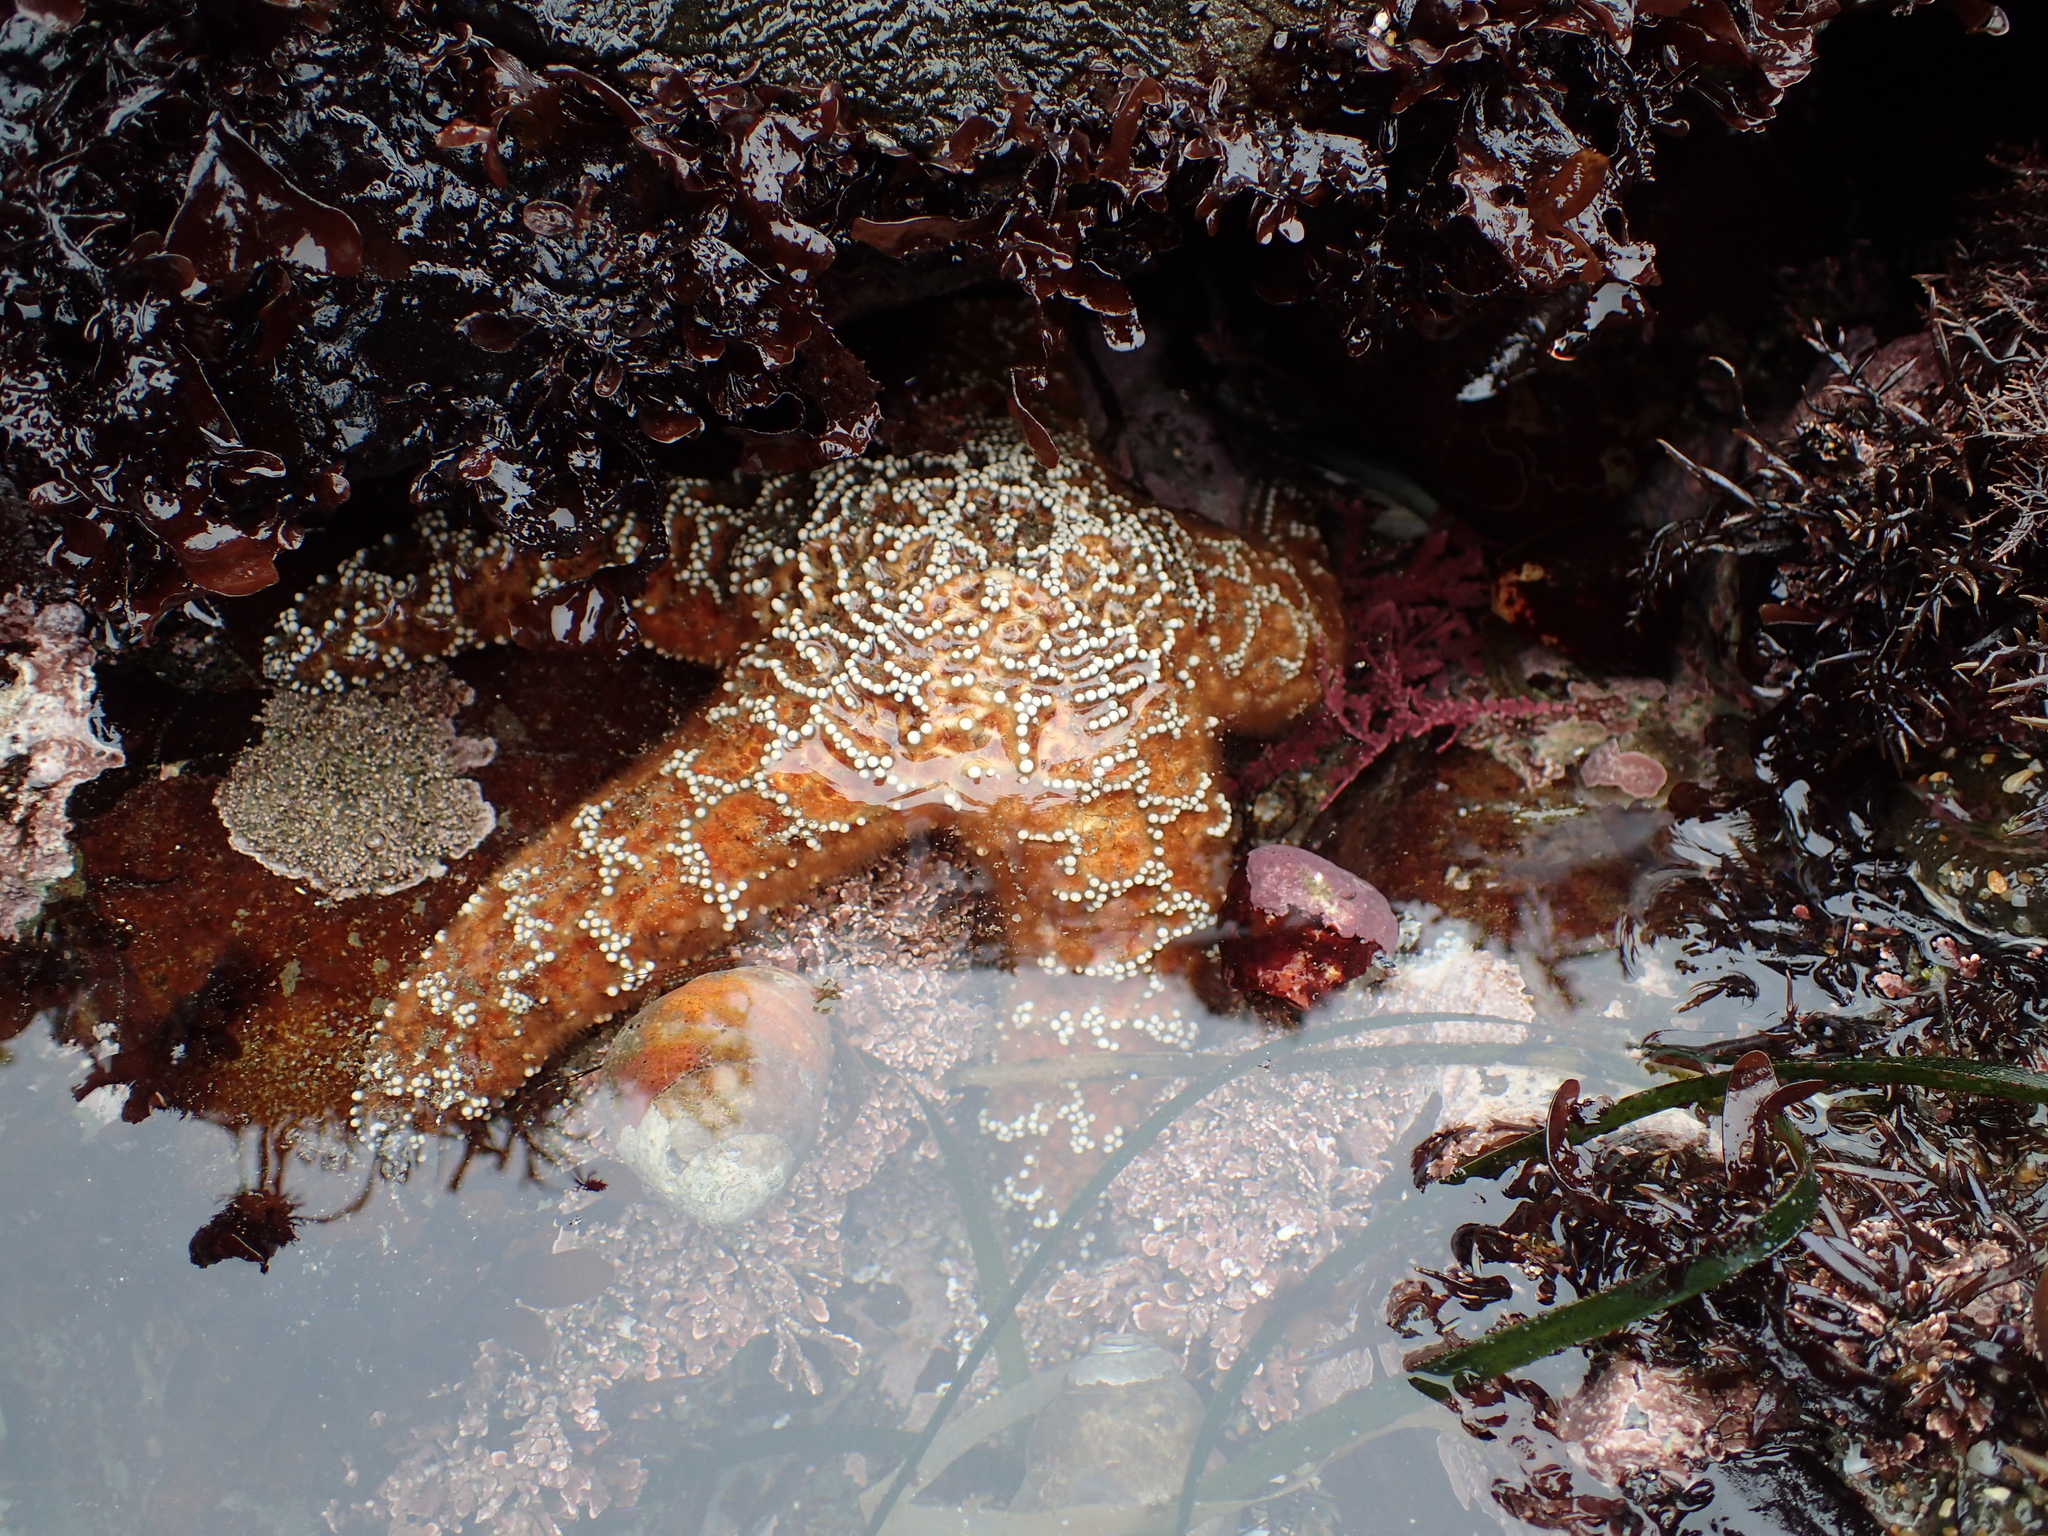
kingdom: Animalia
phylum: Echinodermata
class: Asteroidea
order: Forcipulatida
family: Asteriidae
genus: Pisaster
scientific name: Pisaster ochraceus
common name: Ochre stars
